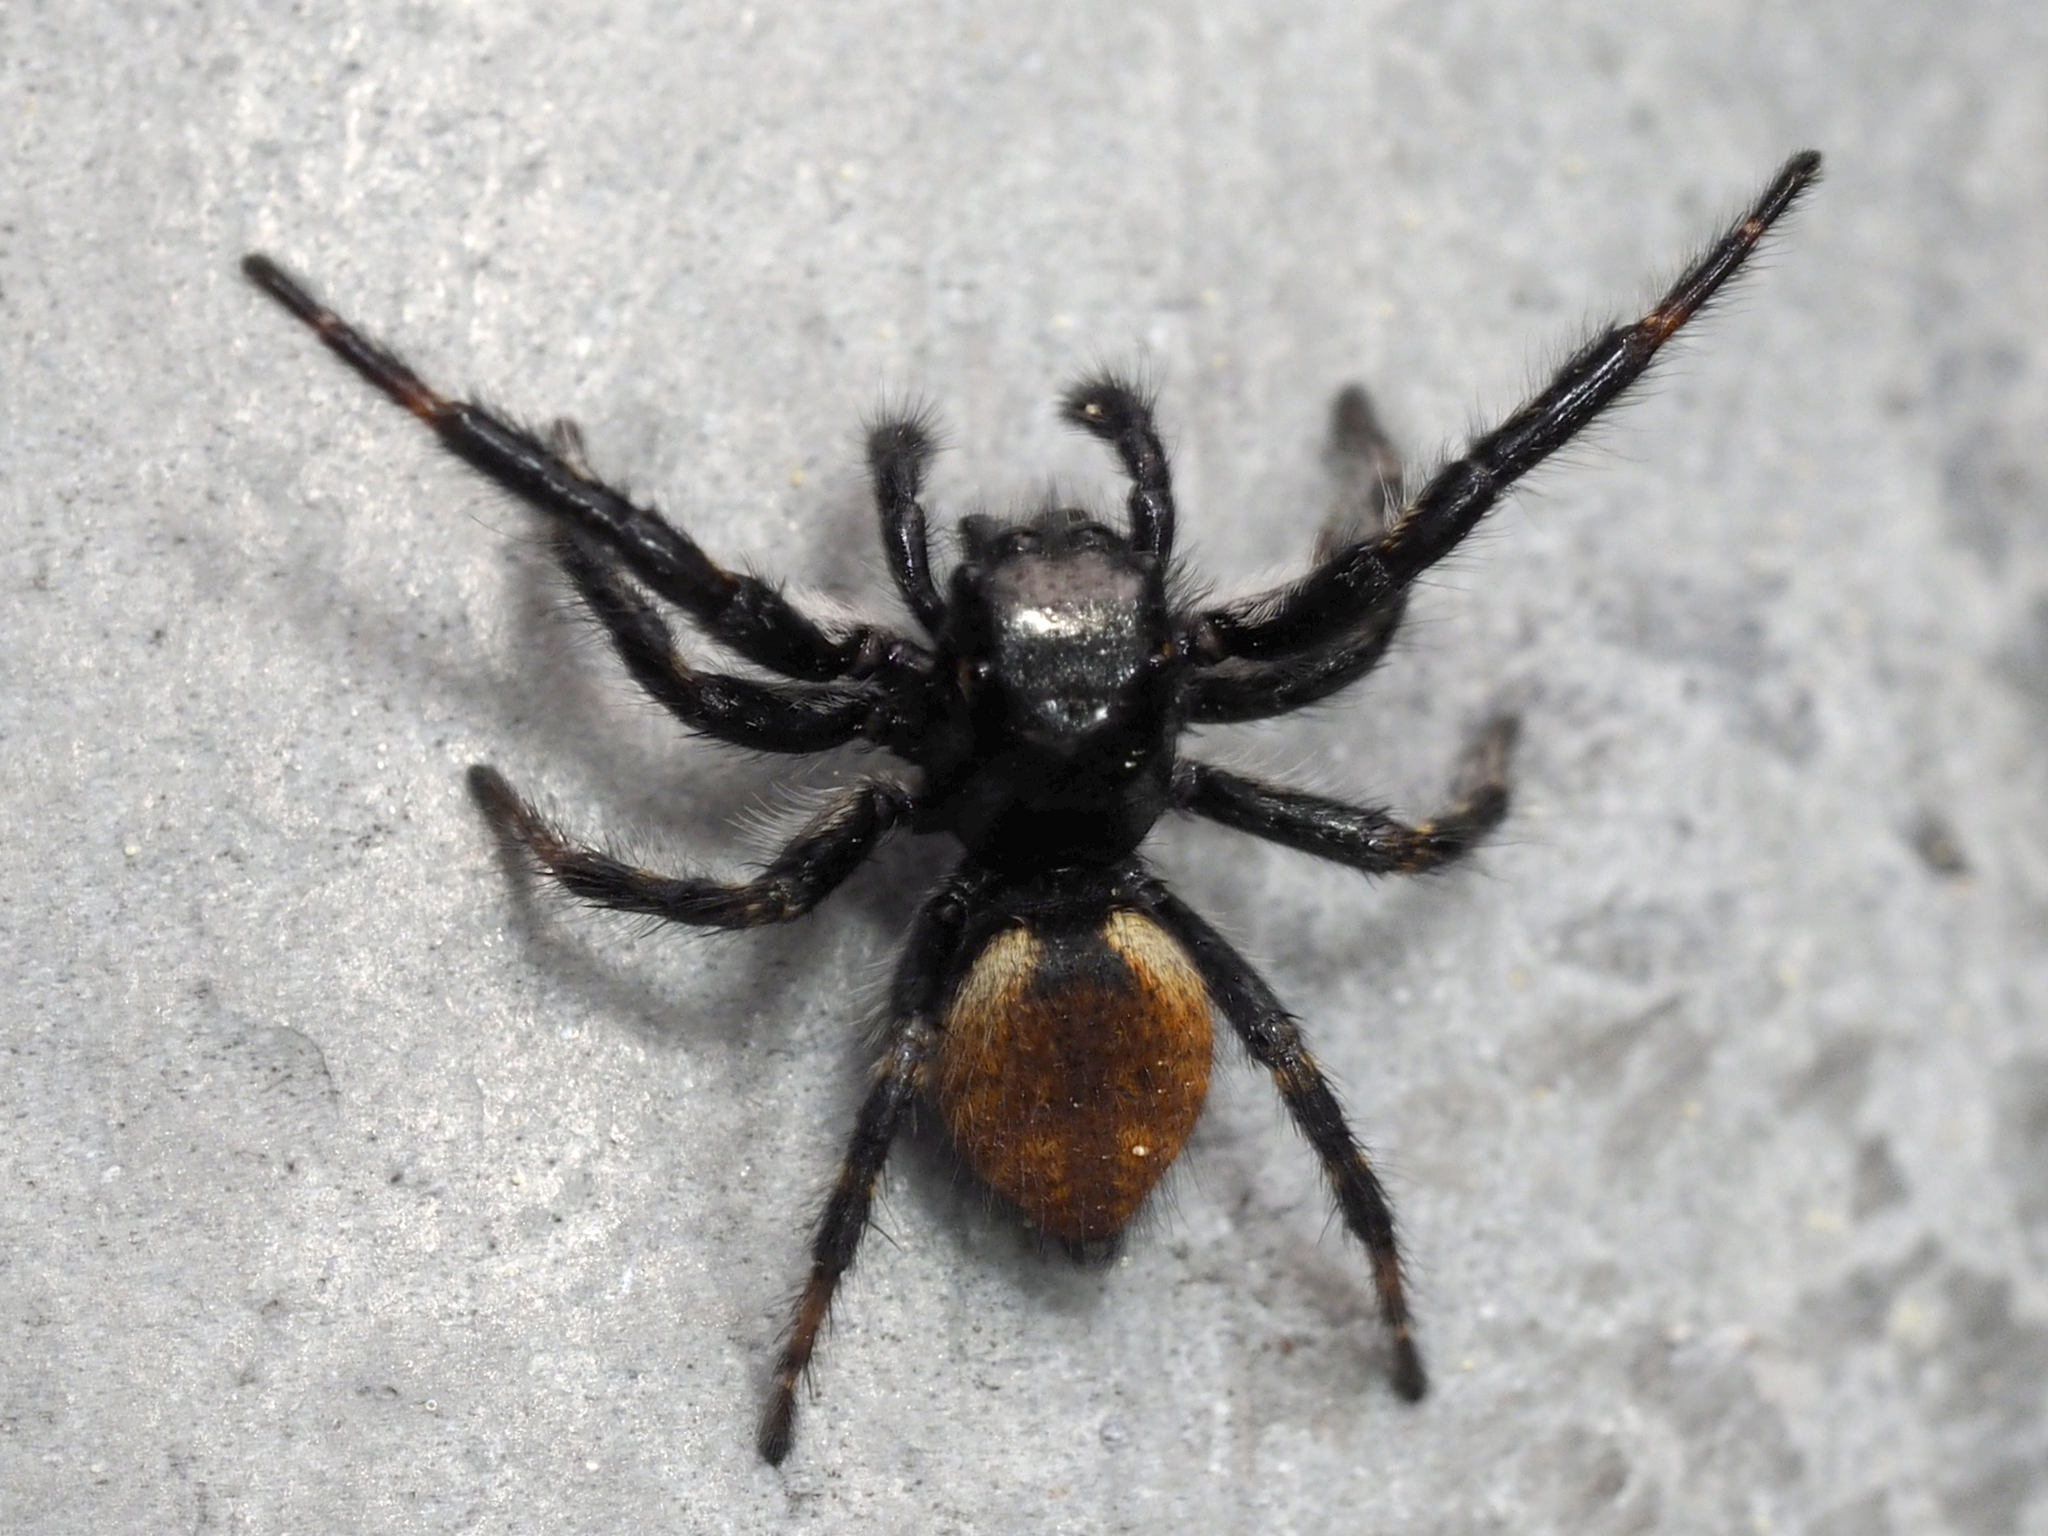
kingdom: Animalia
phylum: Arthropoda
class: Arachnida
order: Araneae
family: Salticidae
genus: Carrhotus
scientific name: Carrhotus xanthogramma
